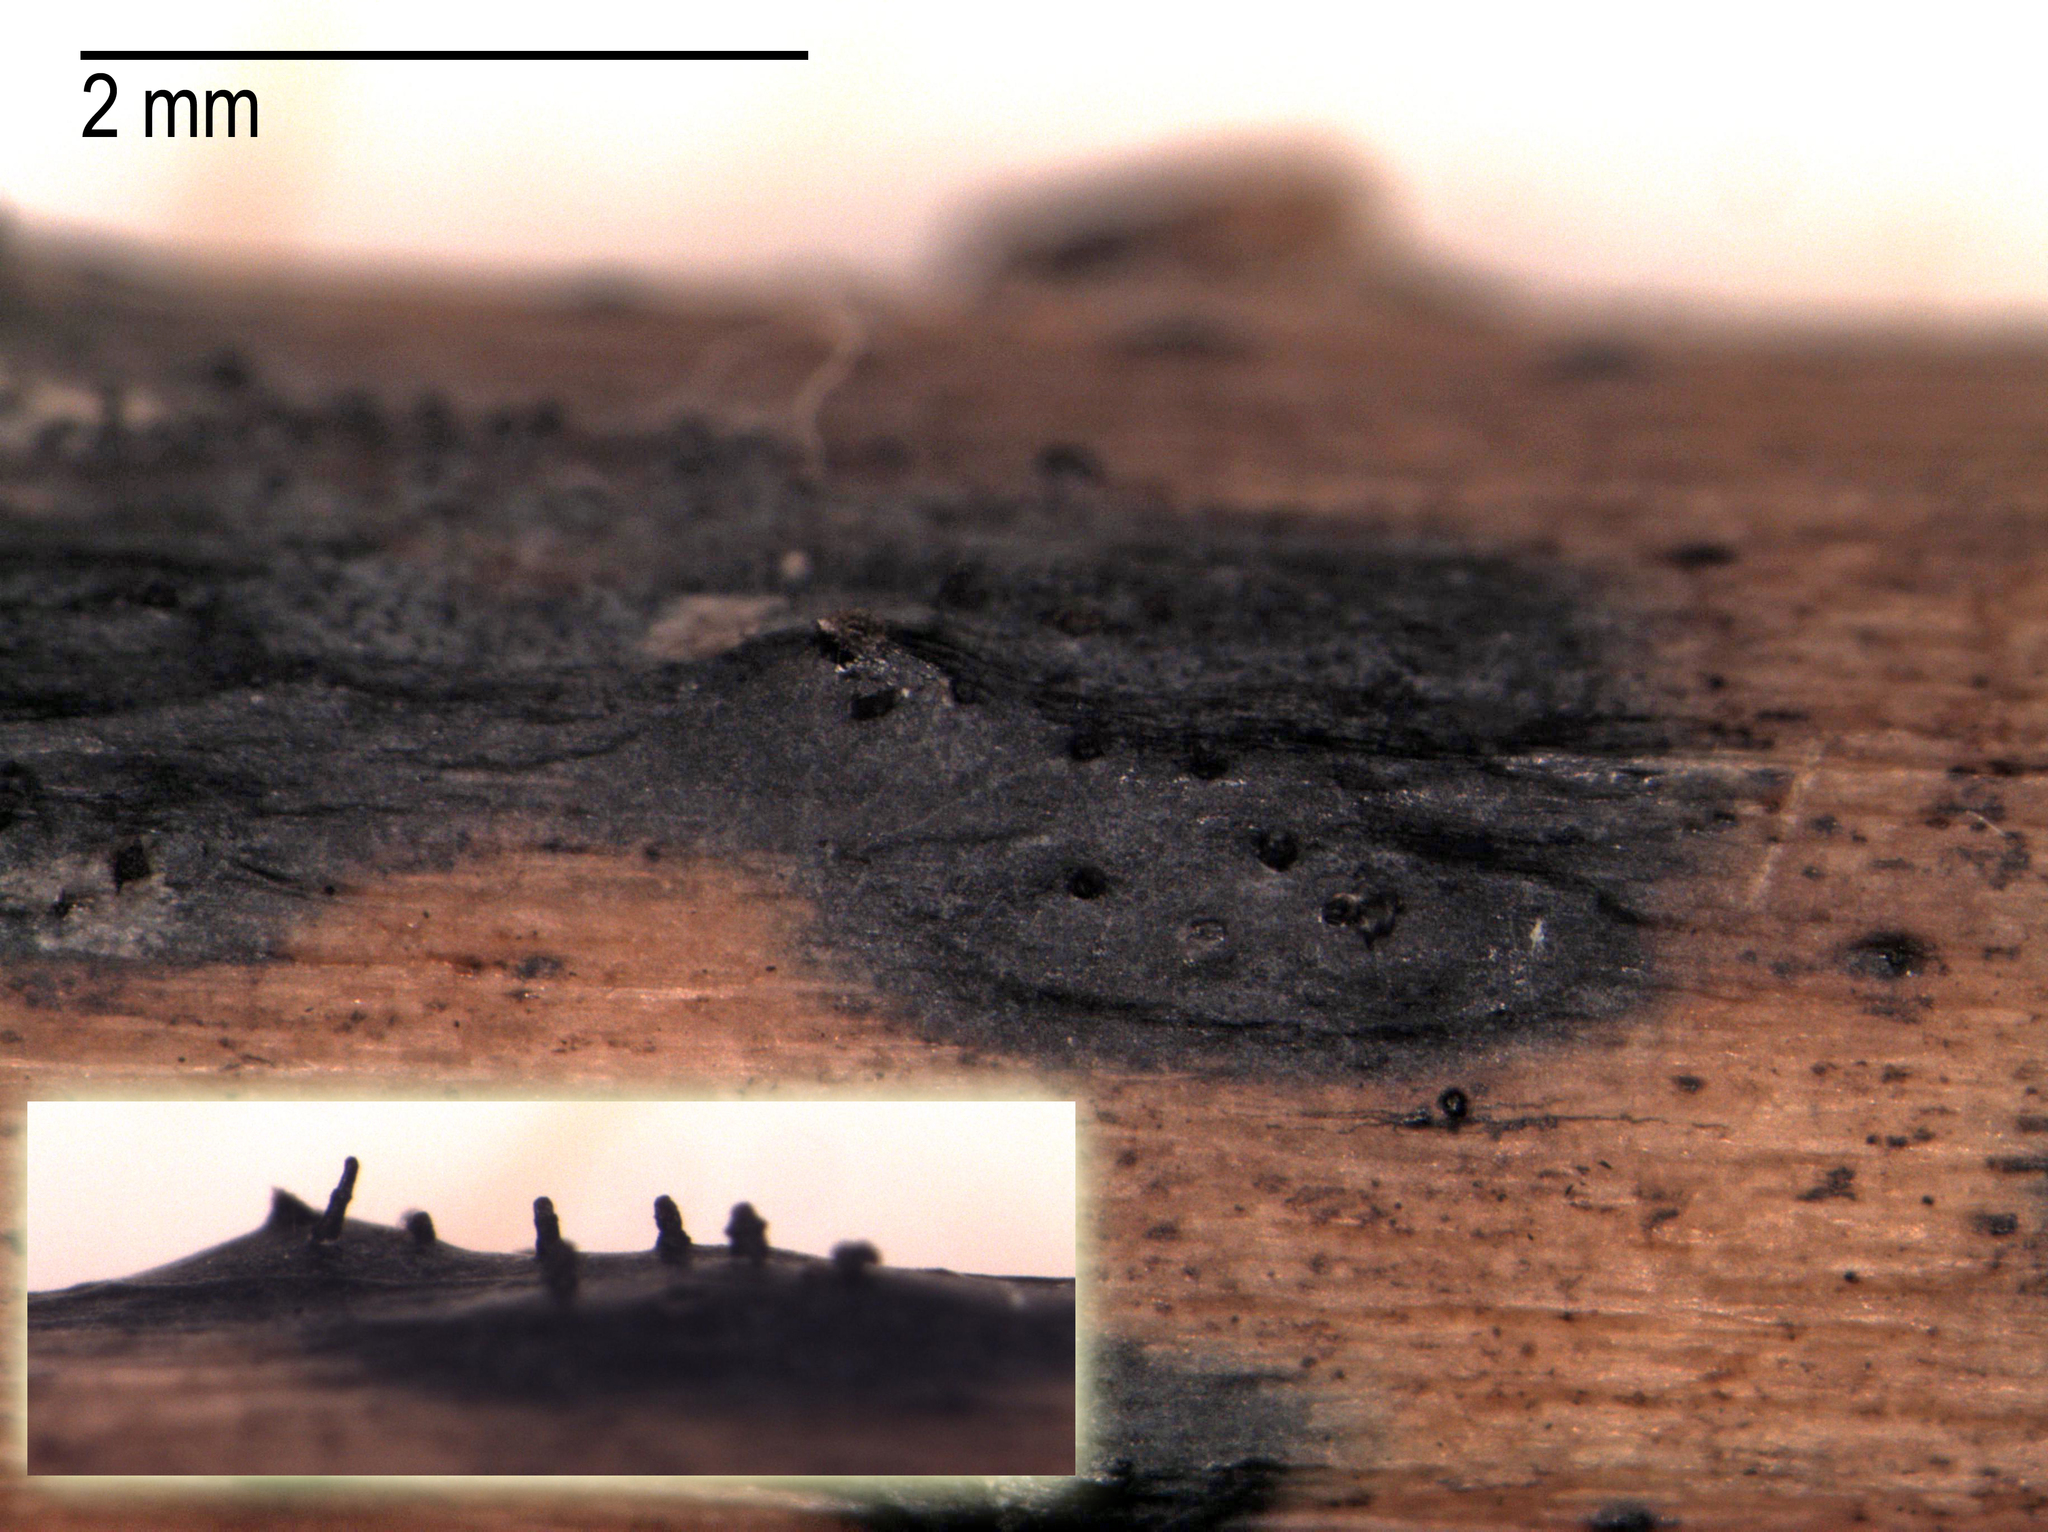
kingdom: Fungi
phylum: Ascomycota
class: Sordariomycetes
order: Diaporthales
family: Gnomoniaceae
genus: Gnomoniopsis
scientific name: Gnomoniopsis idaeicola
